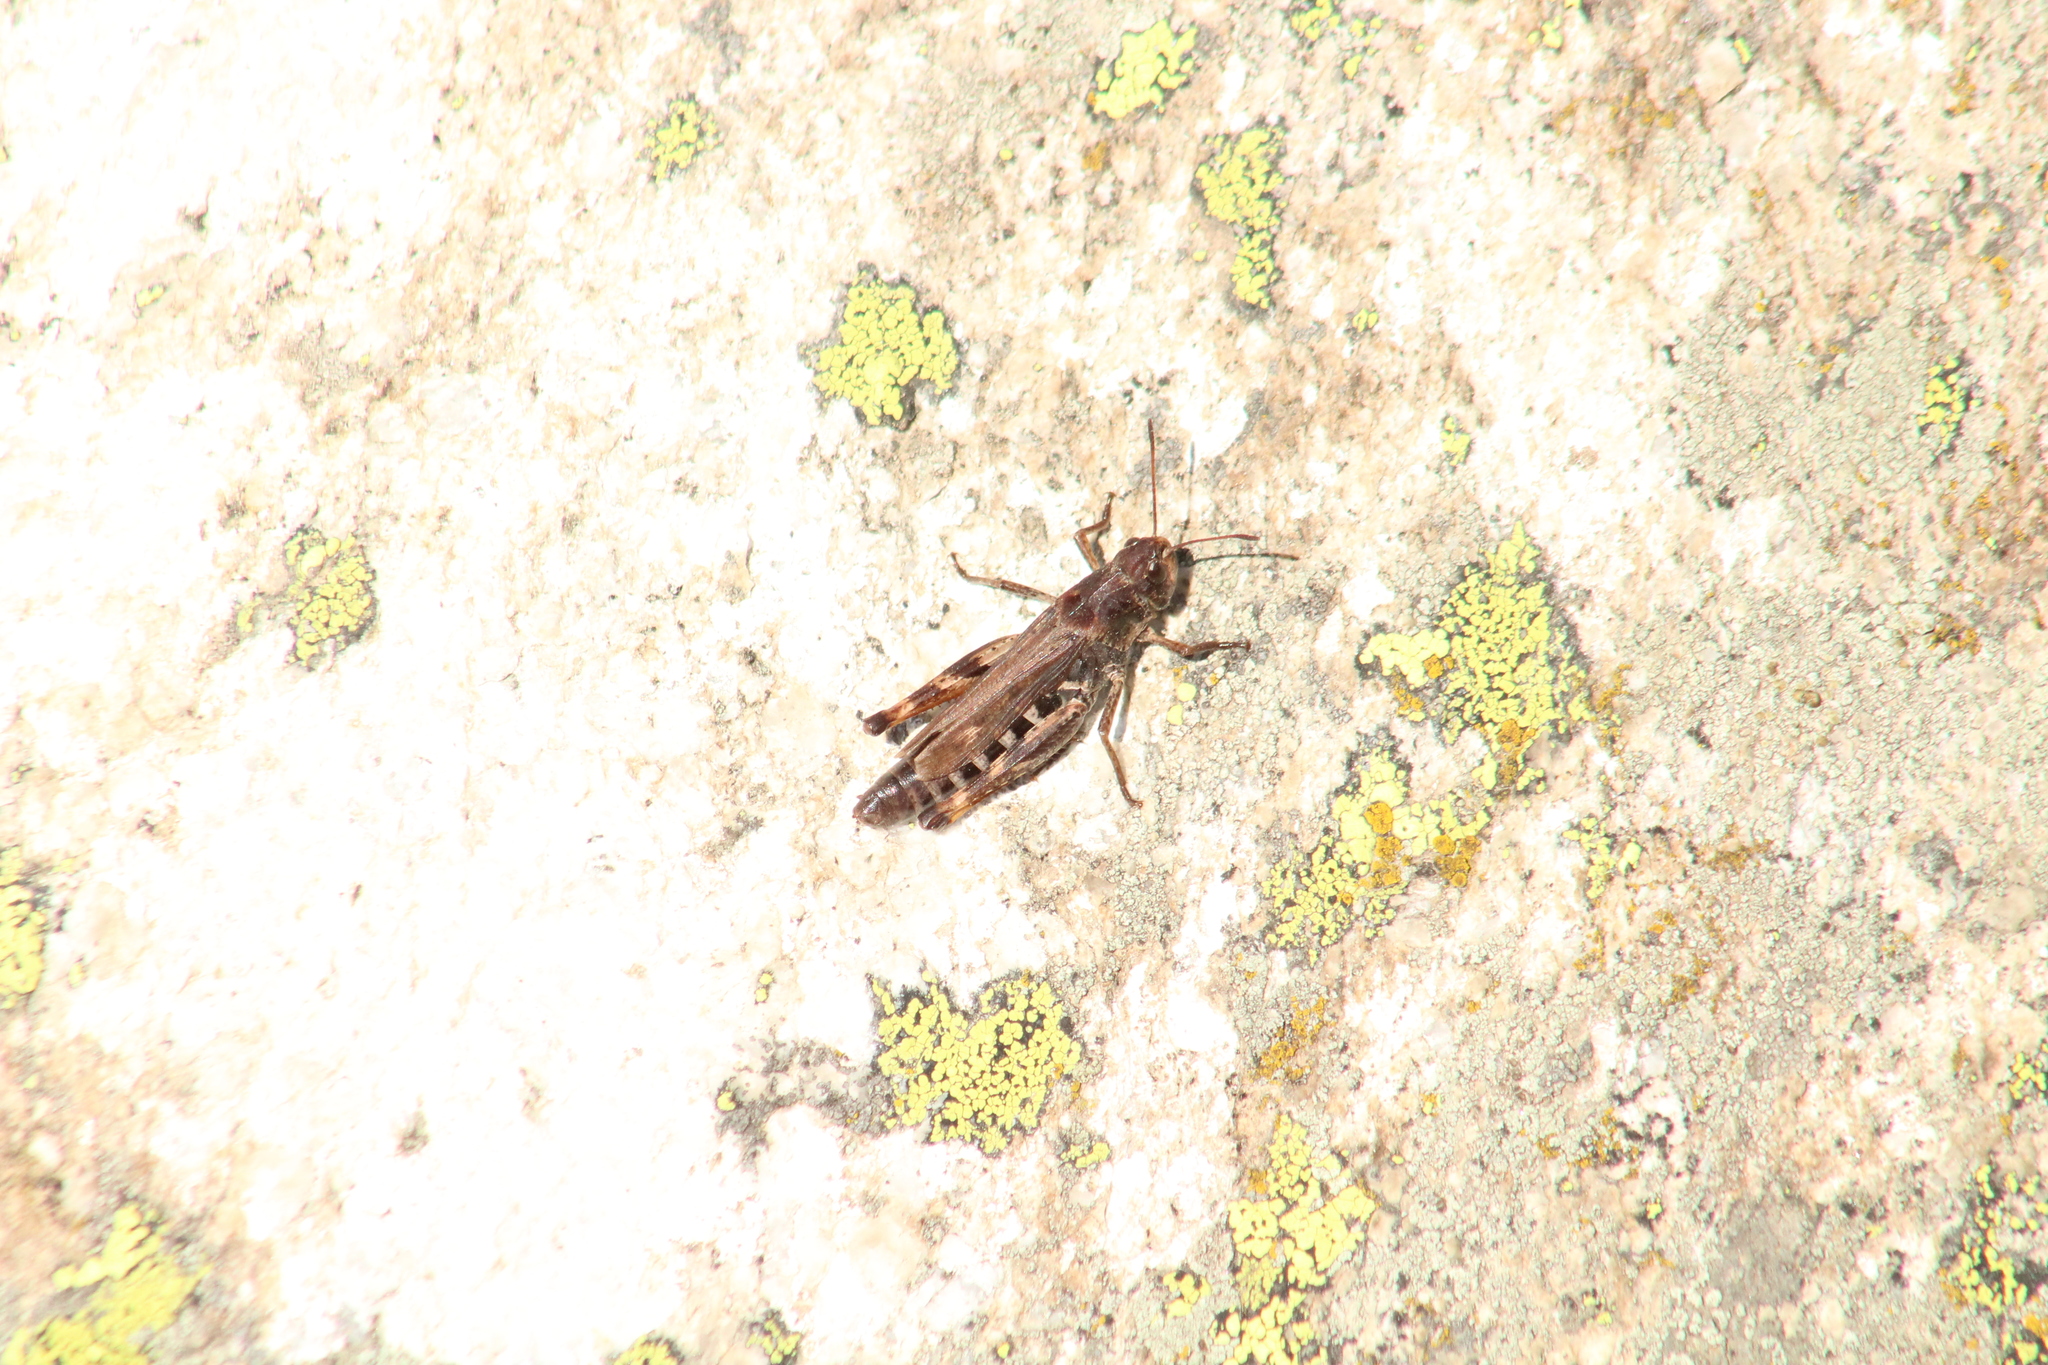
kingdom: Animalia
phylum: Arthropoda
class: Insecta
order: Orthoptera
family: Acrididae
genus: Gomphocerus
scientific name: Gomphocerus sibiricus
